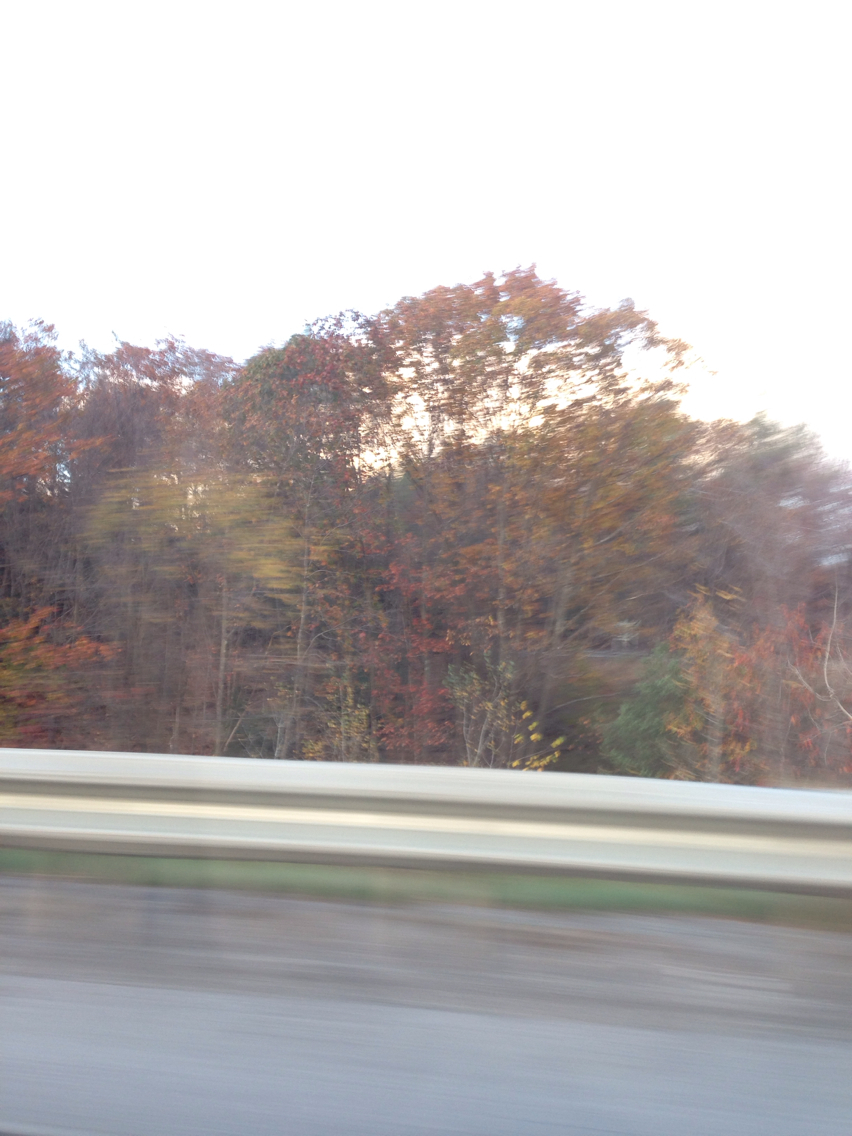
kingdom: Plantae
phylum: Tracheophyta
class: Magnoliopsida
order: Fagales
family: Fagaceae
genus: Quercus
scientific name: Quercus rubra
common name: Red oak
